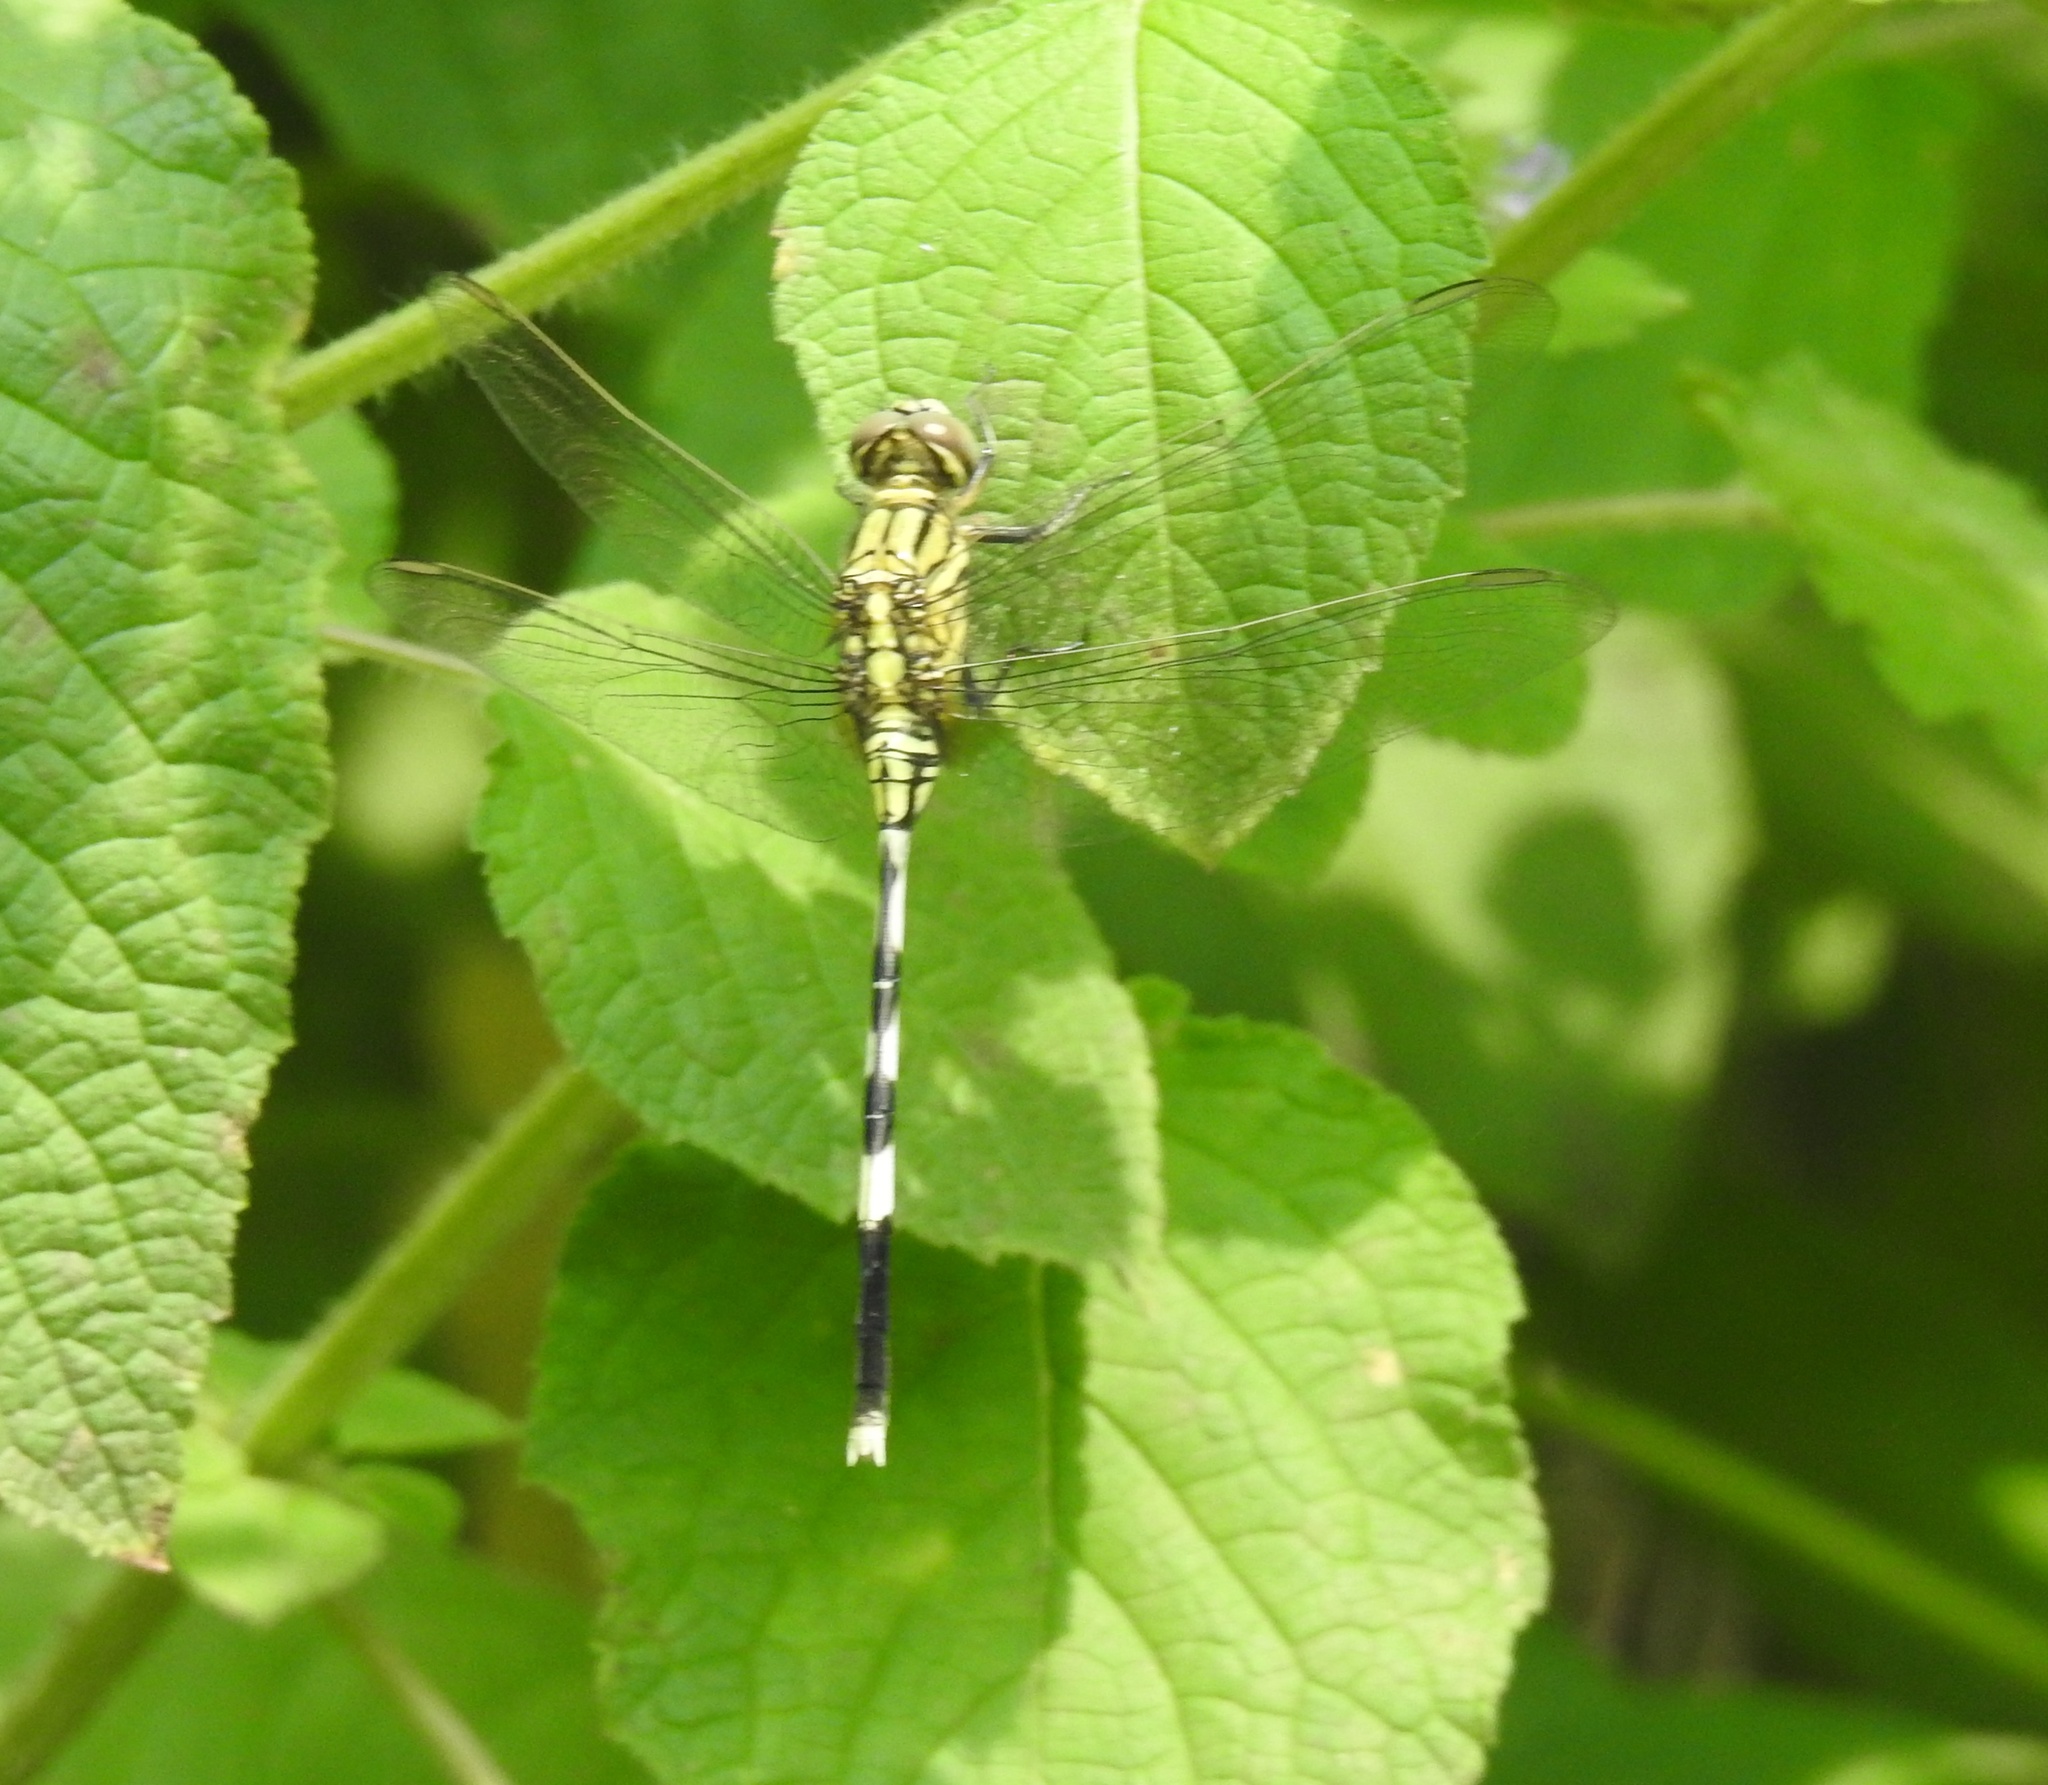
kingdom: Animalia
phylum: Arthropoda
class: Insecta
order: Odonata
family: Libellulidae
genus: Orthetrum
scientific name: Orthetrum sabina
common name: Slender skimmer
